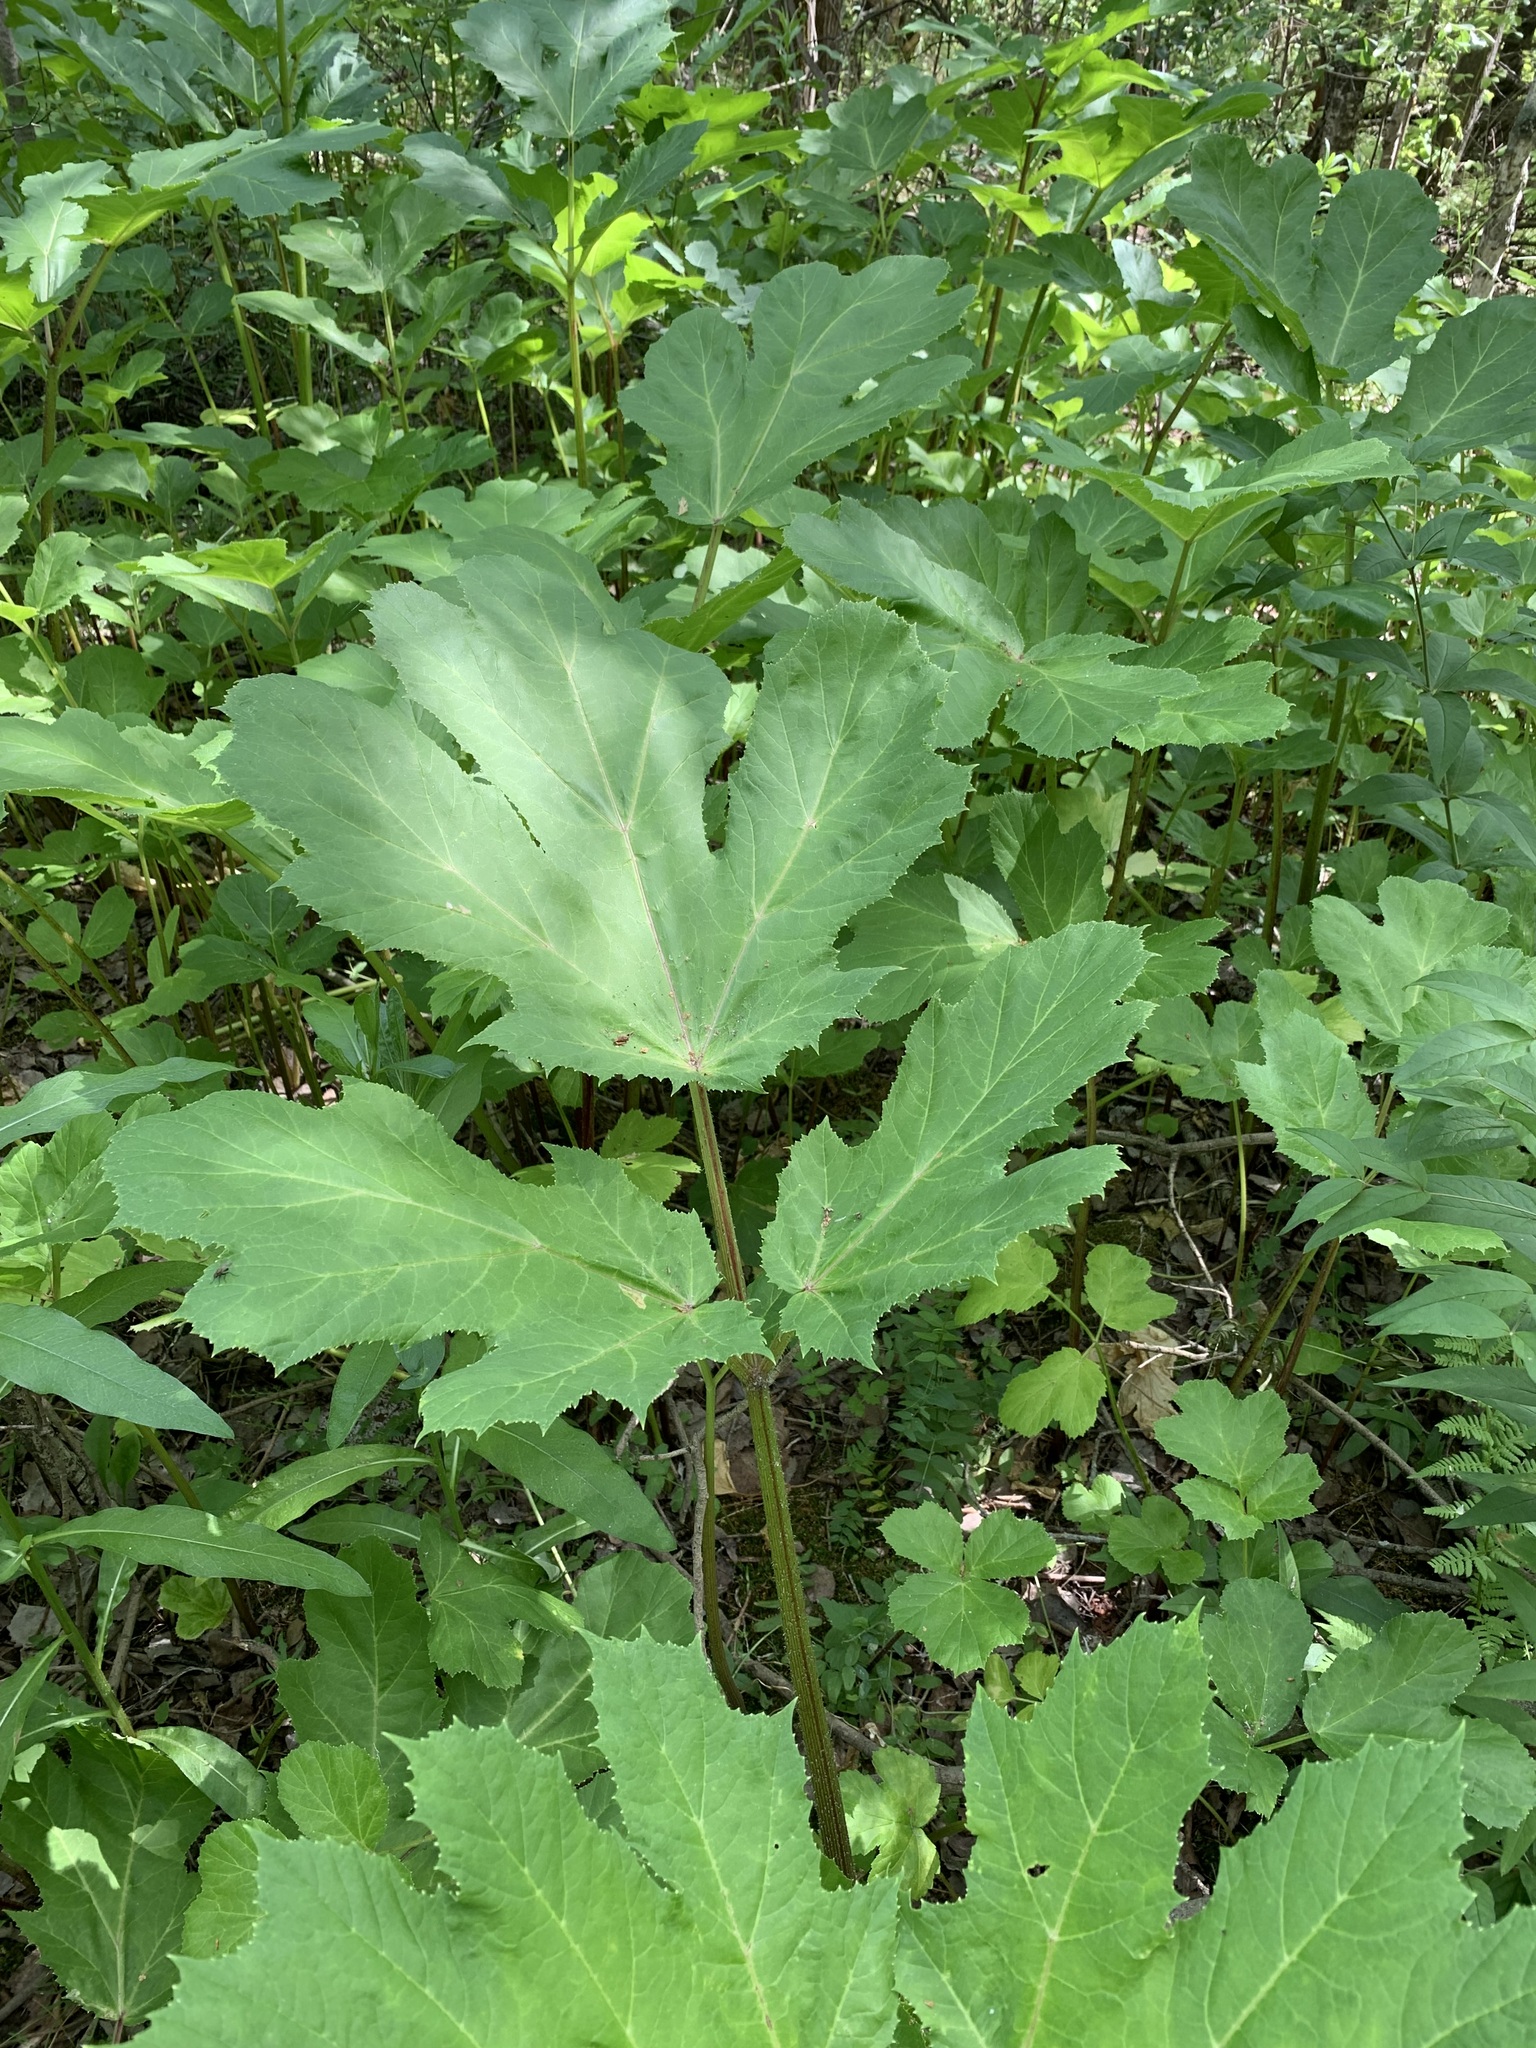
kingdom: Plantae
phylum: Tracheophyta
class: Magnoliopsida
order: Apiales
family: Apiaceae
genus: Heracleum
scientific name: Heracleum sosnowskyi
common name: Sosnowsky's hogweed
